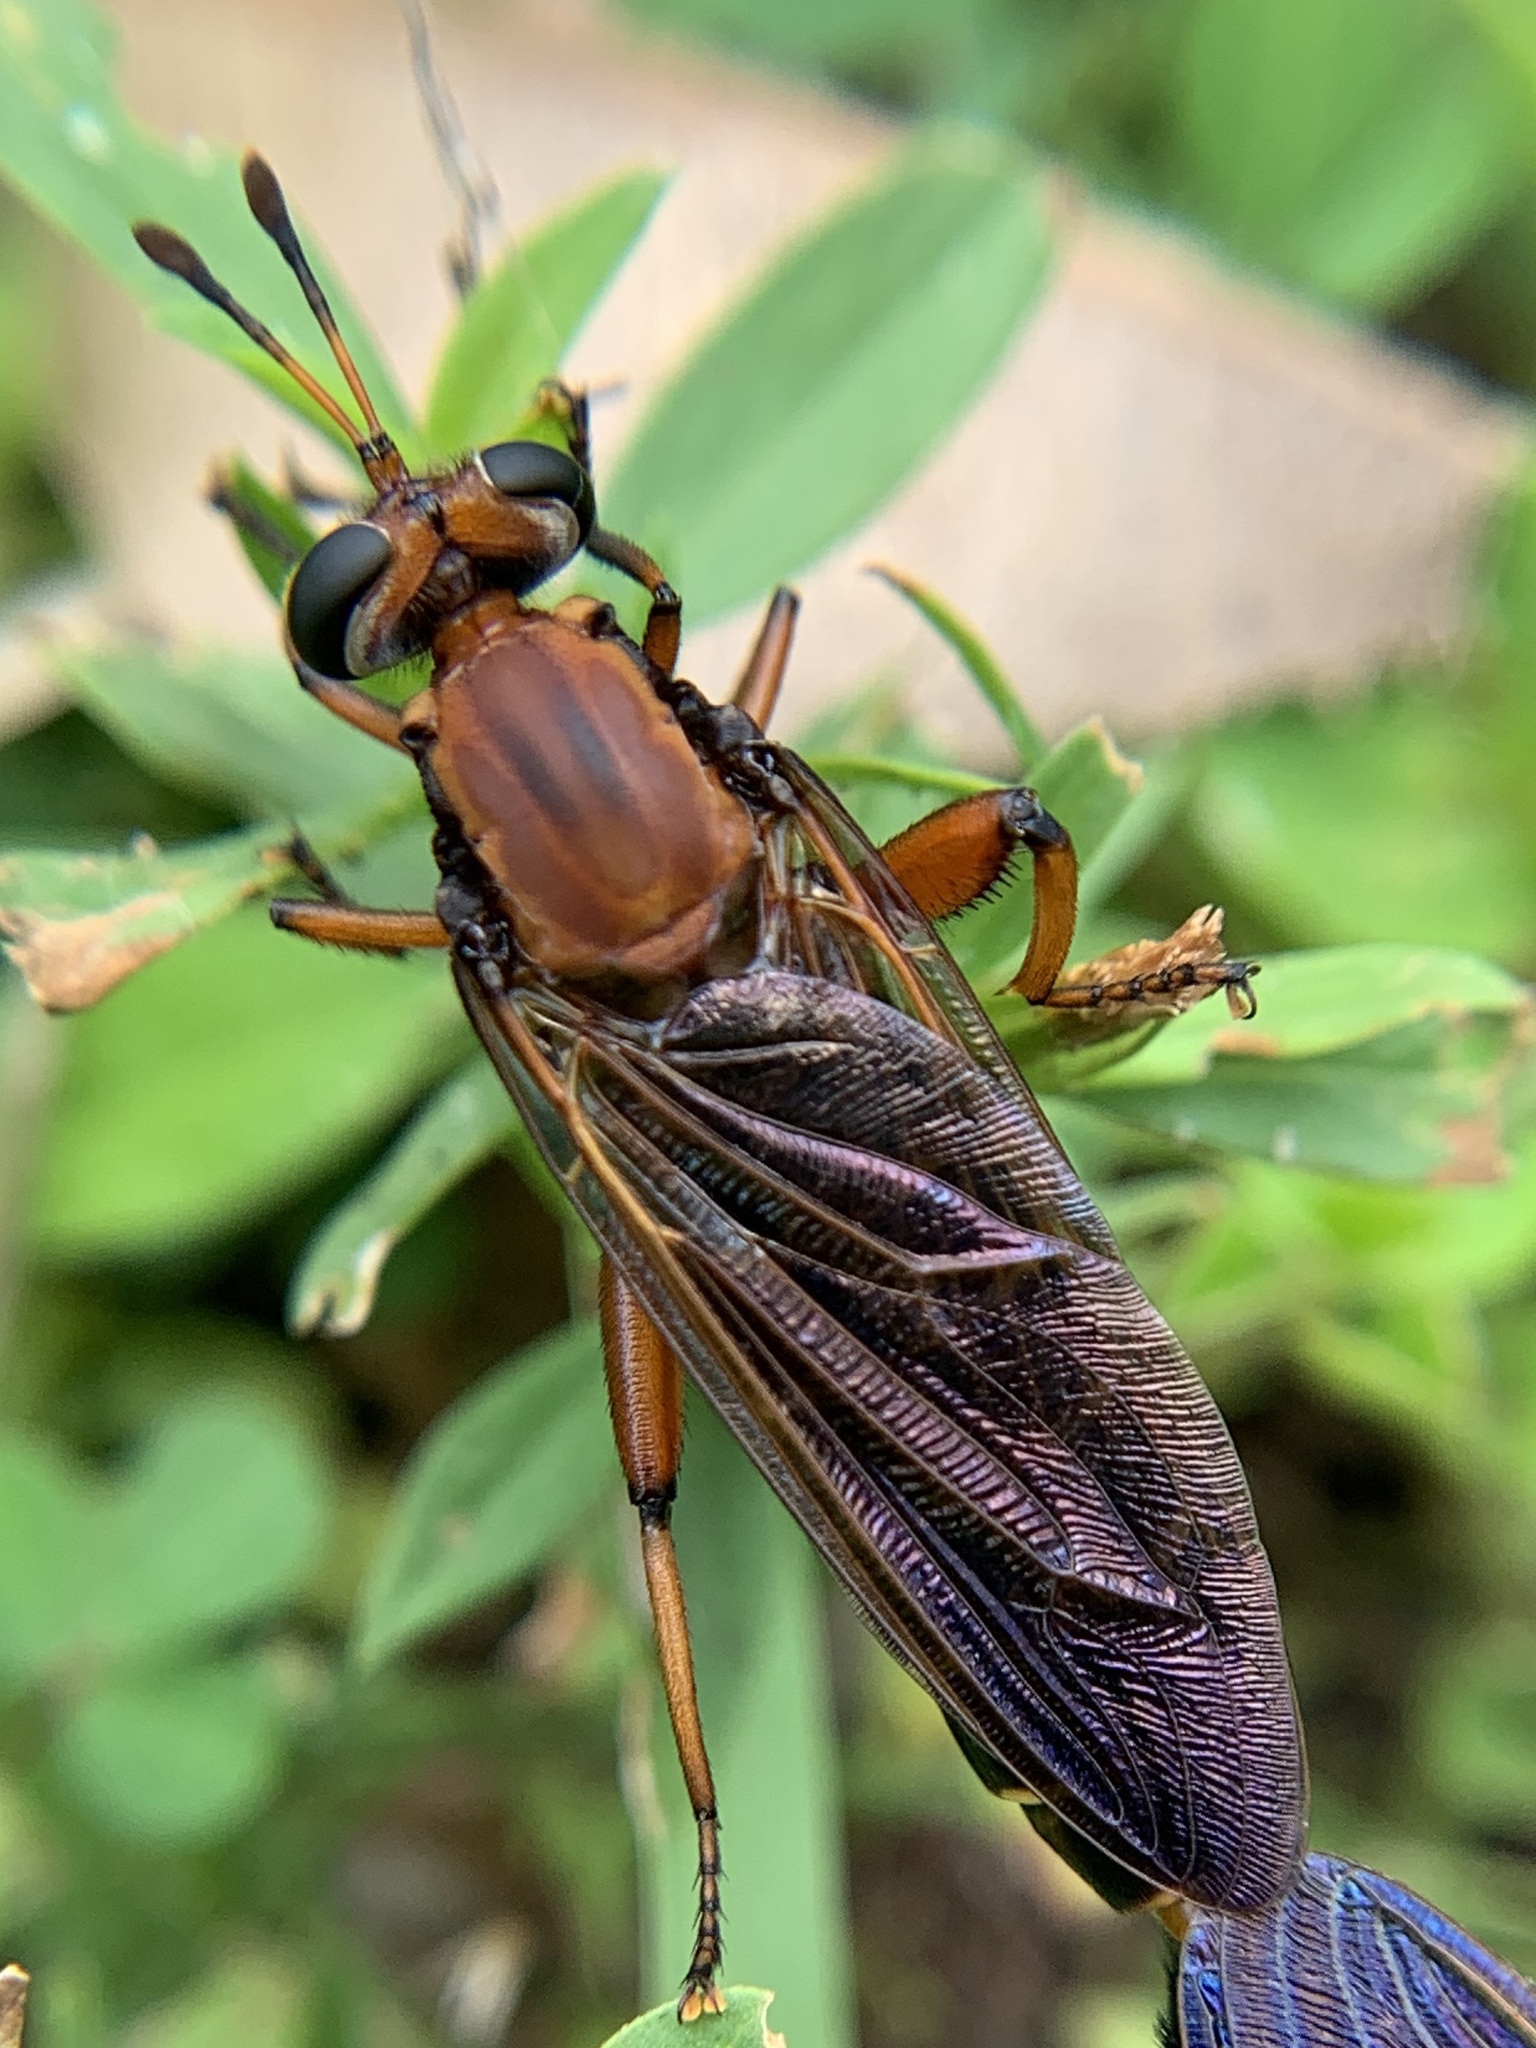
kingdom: Animalia
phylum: Arthropoda
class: Insecta
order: Diptera
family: Mydidae
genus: Mydas
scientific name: Mydas maculiventris
